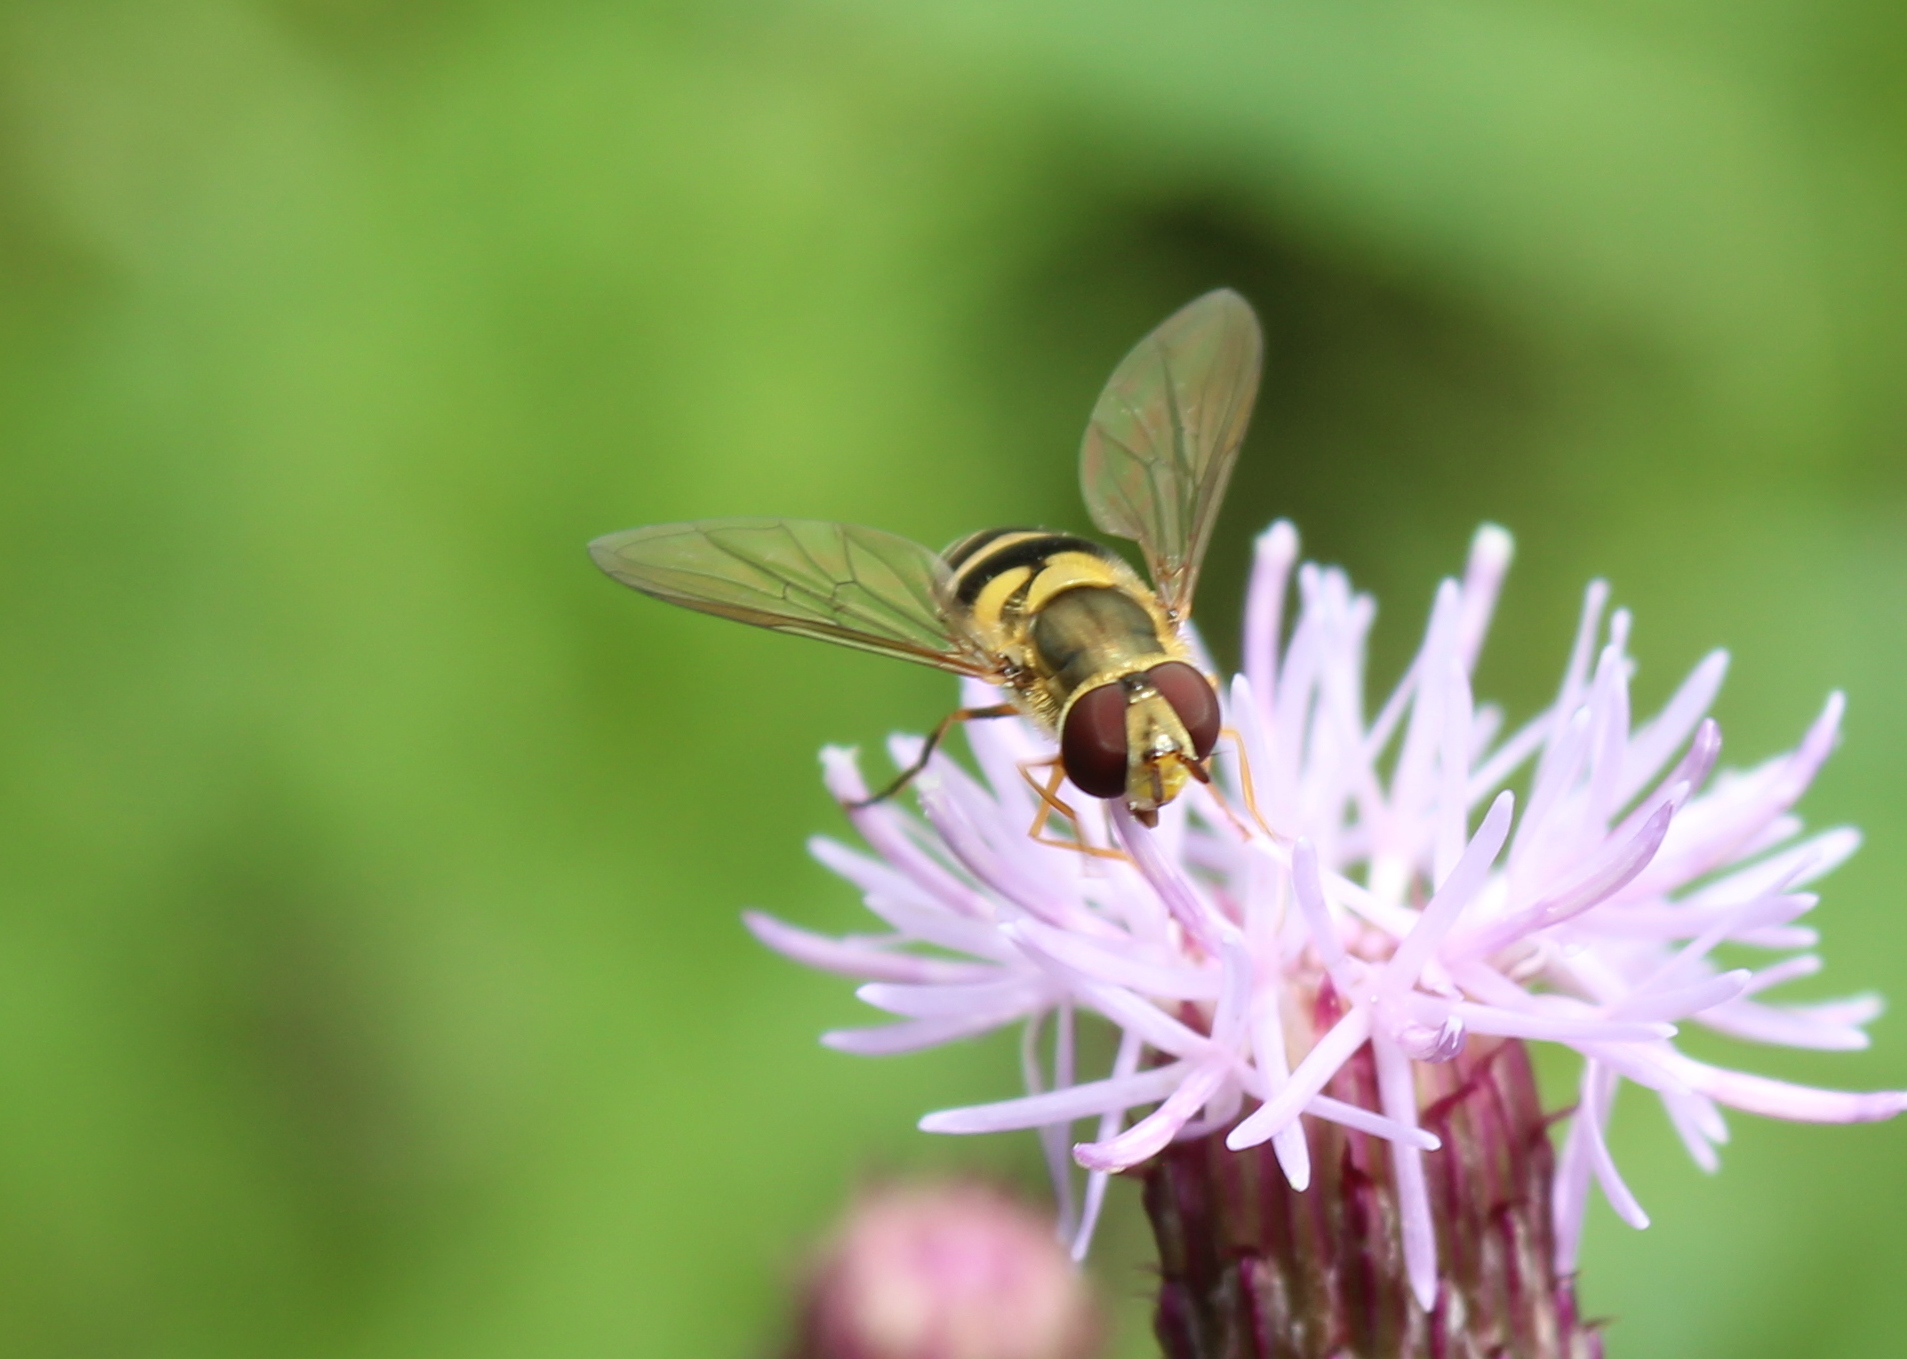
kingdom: Animalia
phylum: Arthropoda
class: Insecta
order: Diptera
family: Syrphidae
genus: Syrphus
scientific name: Syrphus rectus
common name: Yellow-legged flower fly
